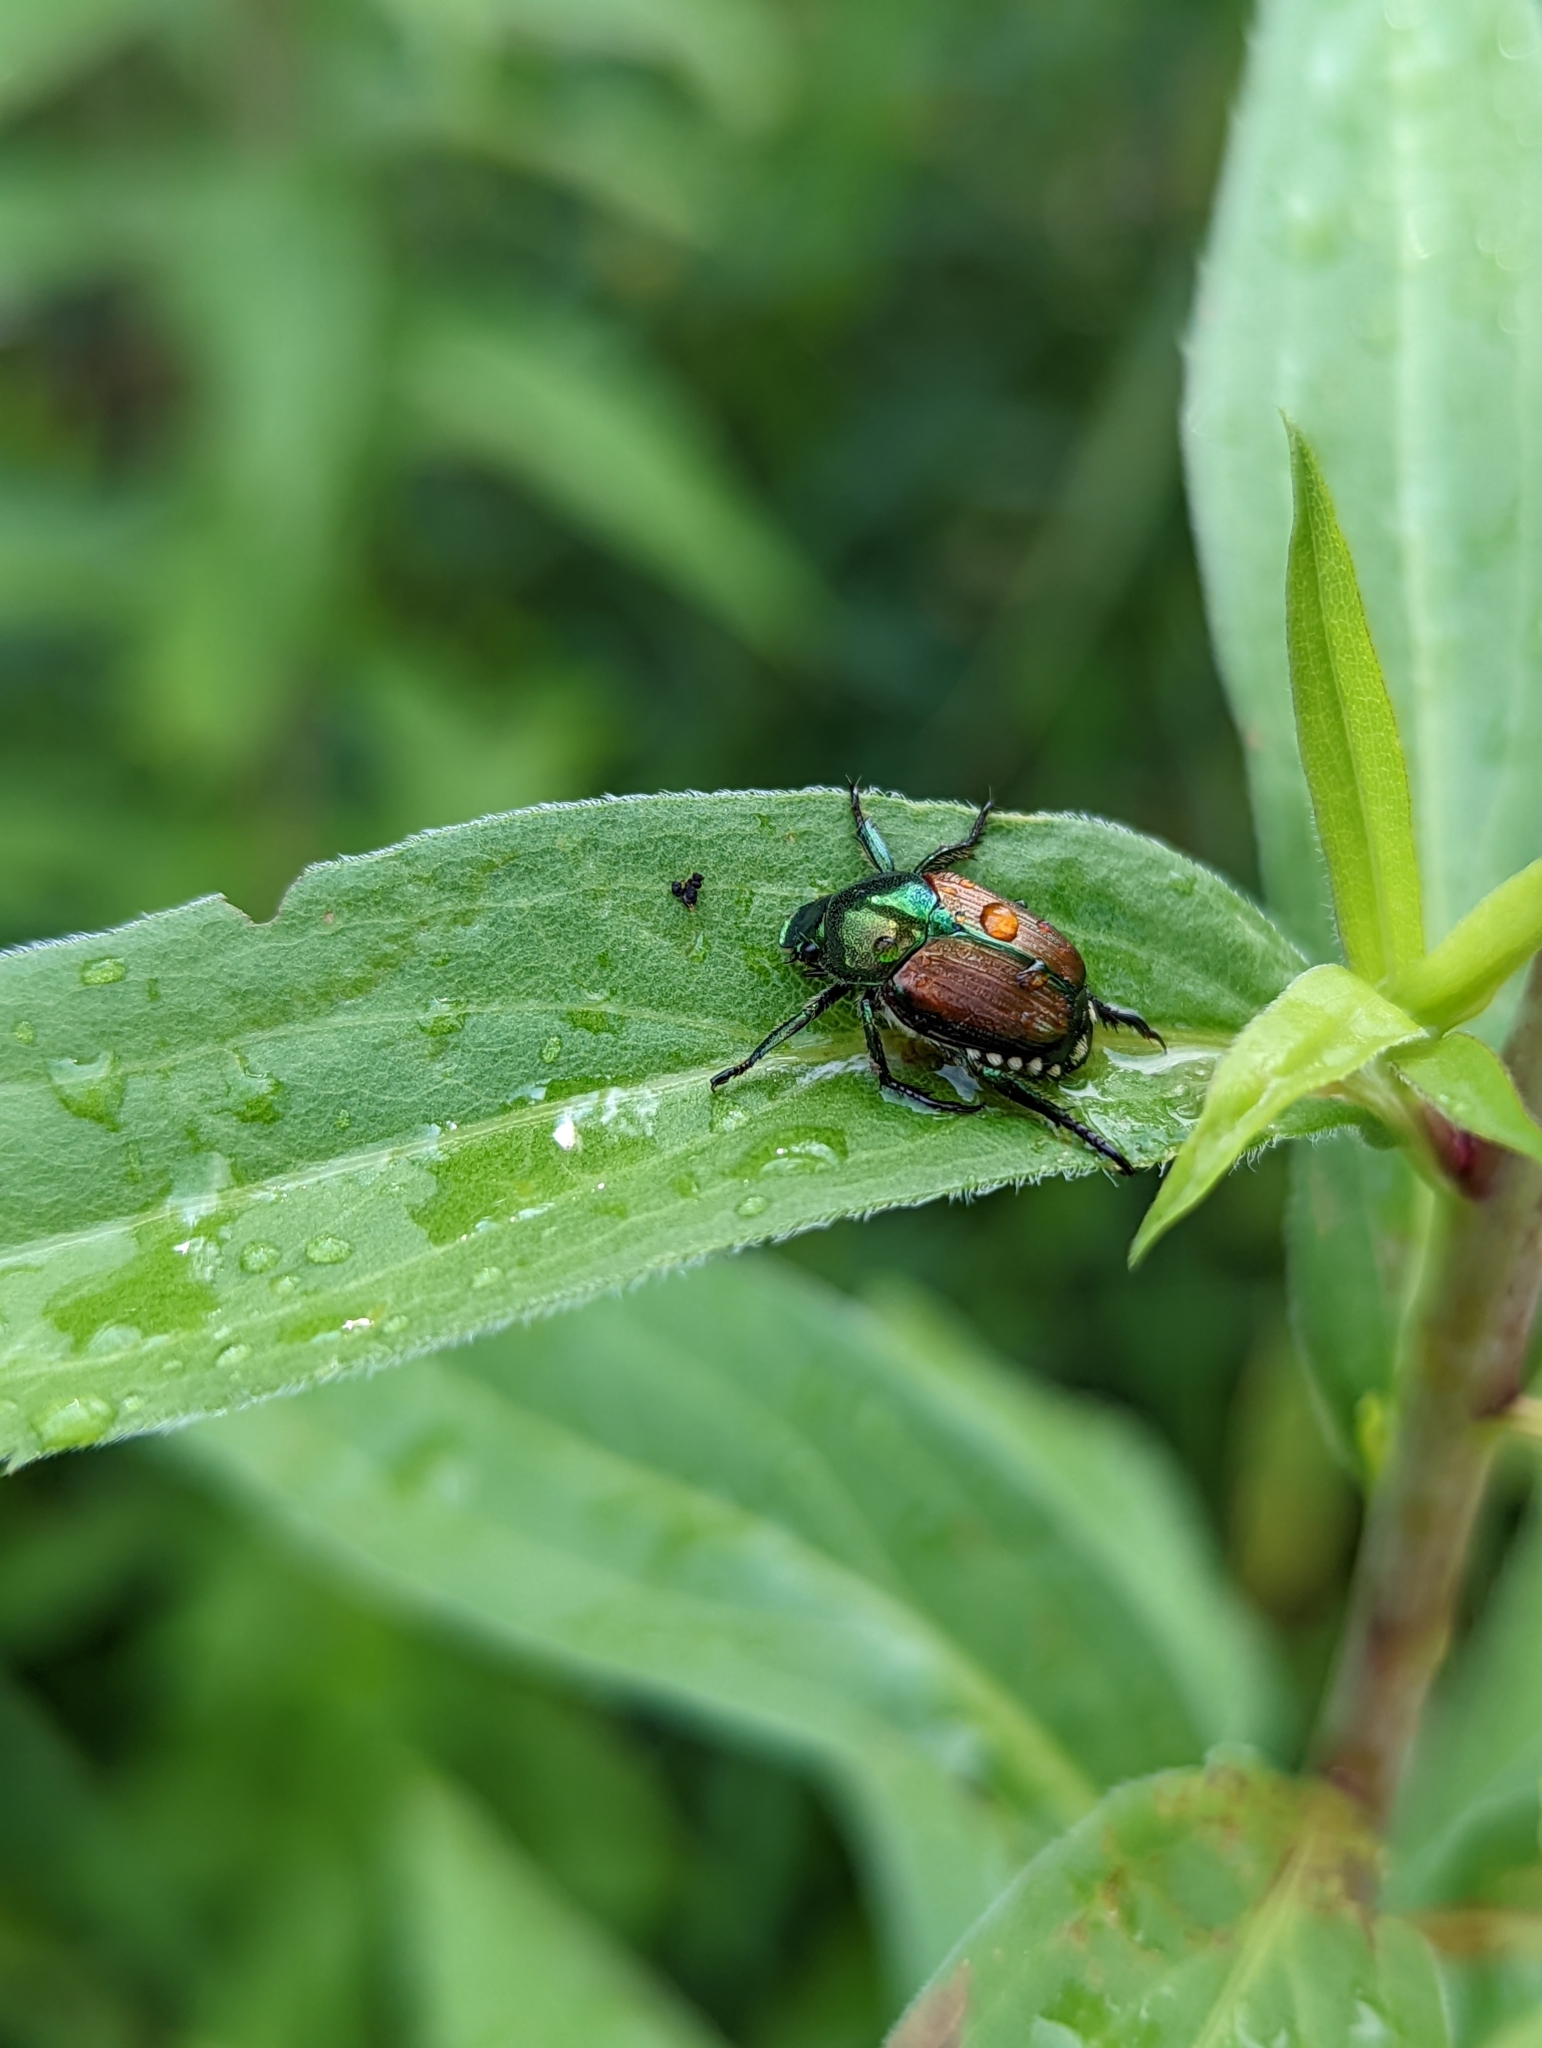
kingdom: Animalia
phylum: Arthropoda
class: Insecta
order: Coleoptera
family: Scarabaeidae
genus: Popillia
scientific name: Popillia japonica
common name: Japanese beetle
